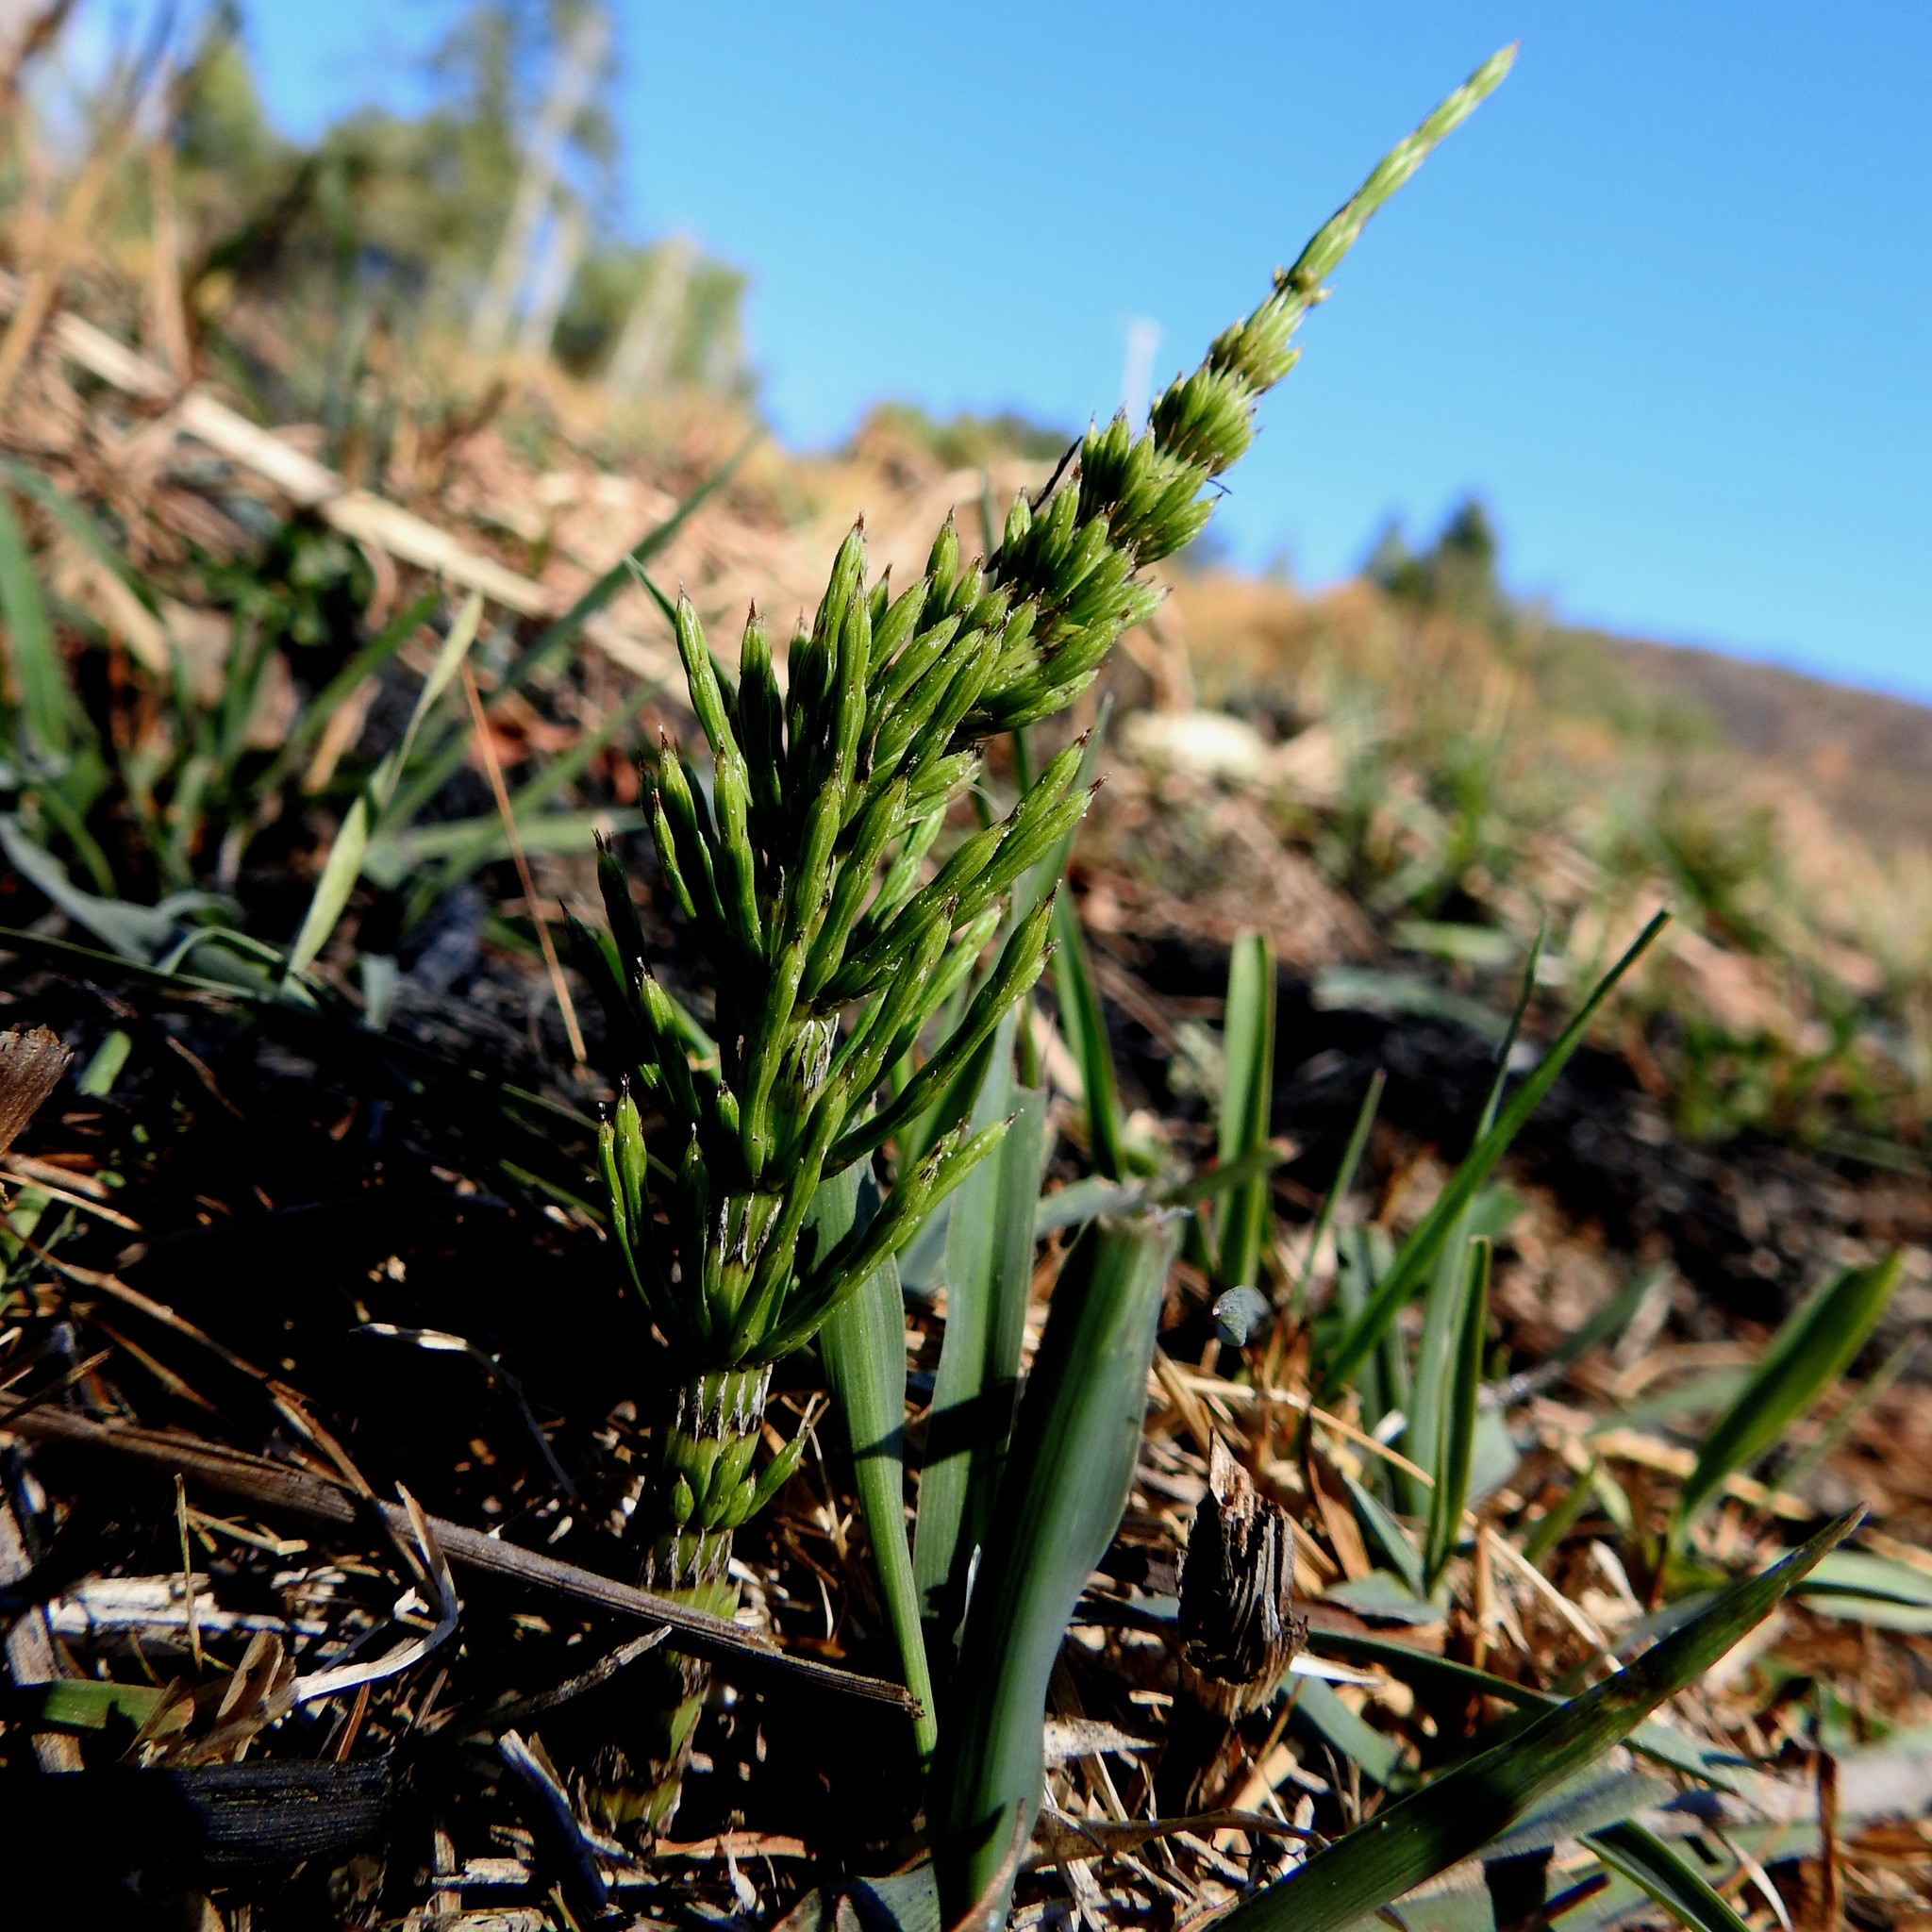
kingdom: Plantae
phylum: Tracheophyta
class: Polypodiopsida
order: Equisetales
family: Equisetaceae
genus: Equisetum
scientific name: Equisetum braunii
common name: Braun's horsetail
